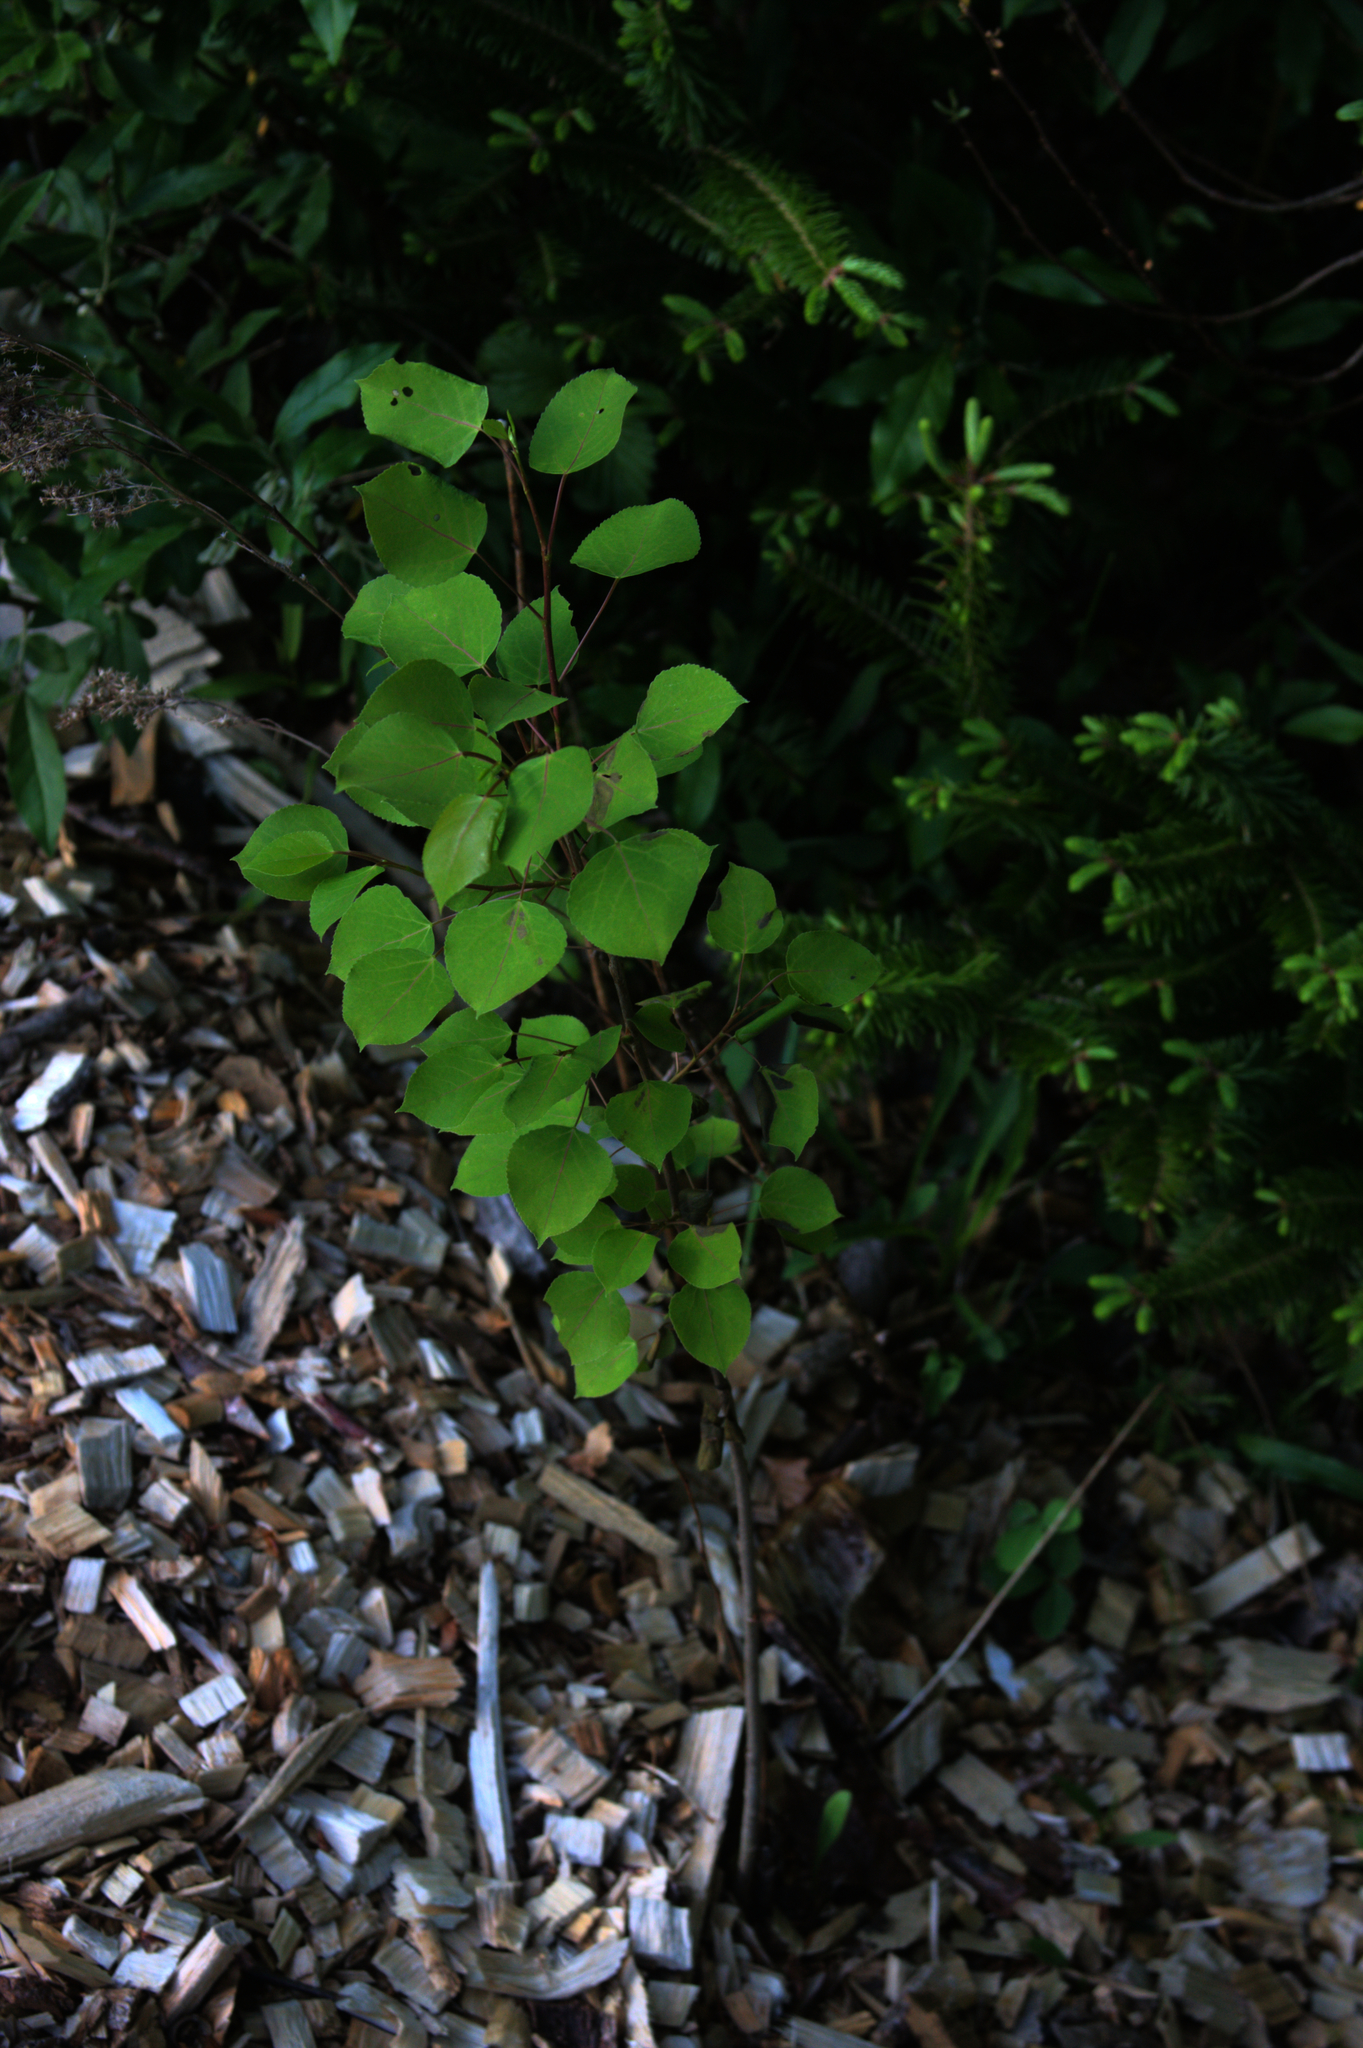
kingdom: Plantae
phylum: Tracheophyta
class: Magnoliopsida
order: Malpighiales
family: Salicaceae
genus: Populus
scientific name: Populus tremuloides
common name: Quaking aspen
